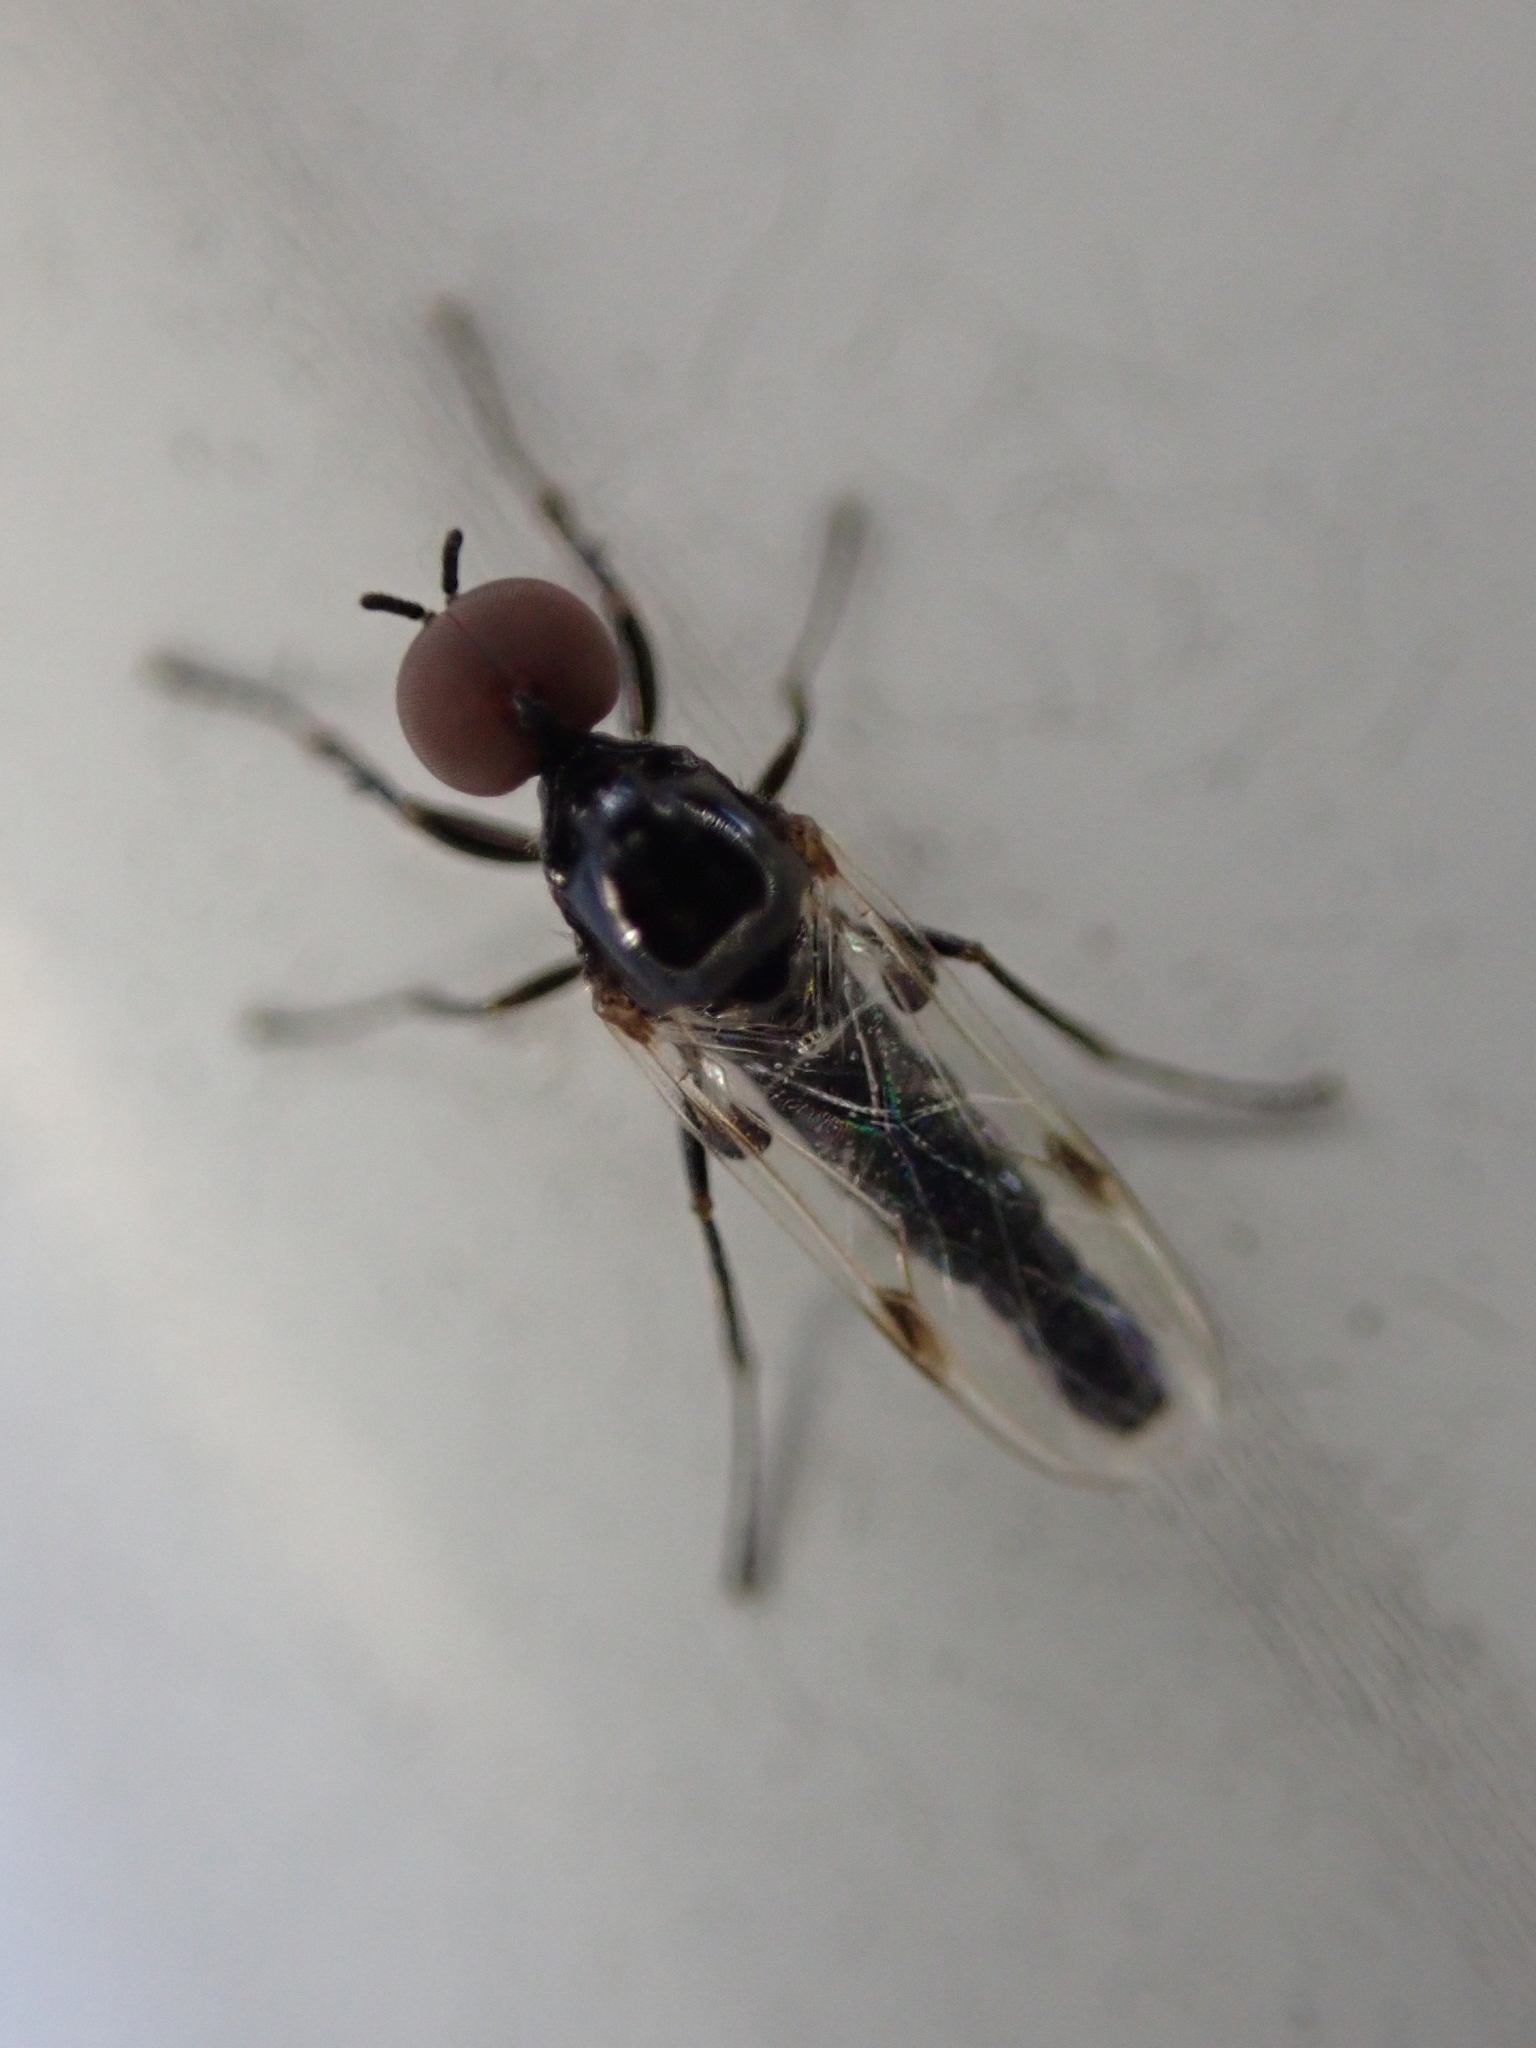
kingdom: Animalia
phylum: Arthropoda
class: Insecta
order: Diptera
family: Bibionidae
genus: Dilophus
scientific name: Dilophus
